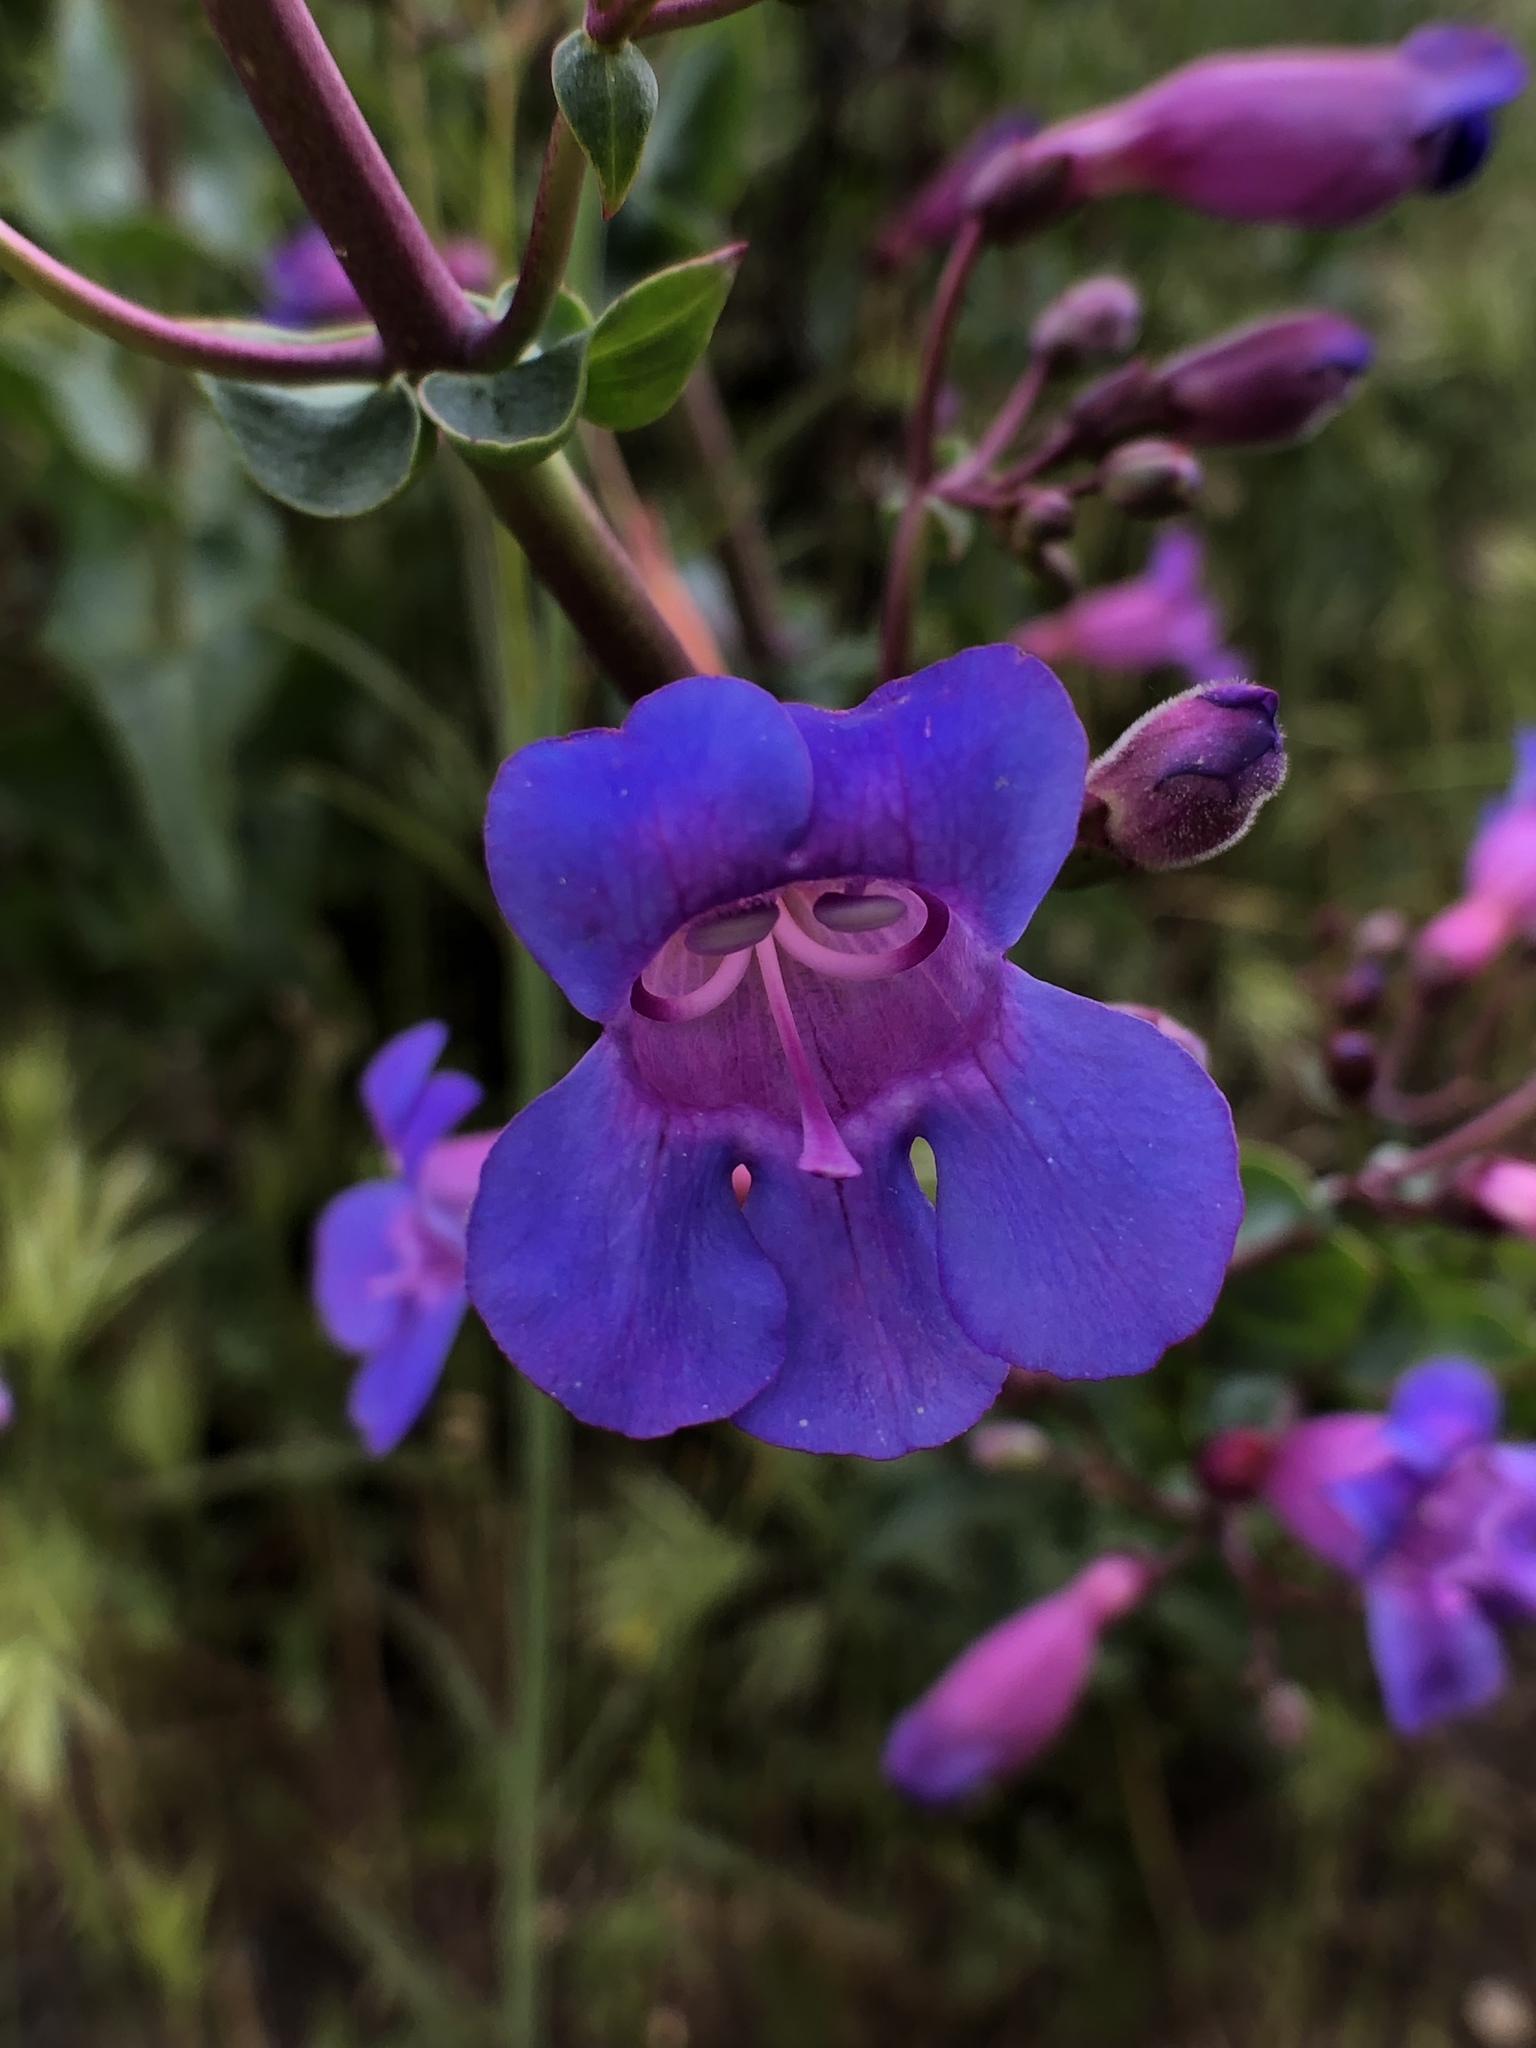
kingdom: Plantae
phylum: Tracheophyta
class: Magnoliopsida
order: Lamiales
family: Plantaginaceae
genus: Penstemon
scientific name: Penstemon spectabilis
